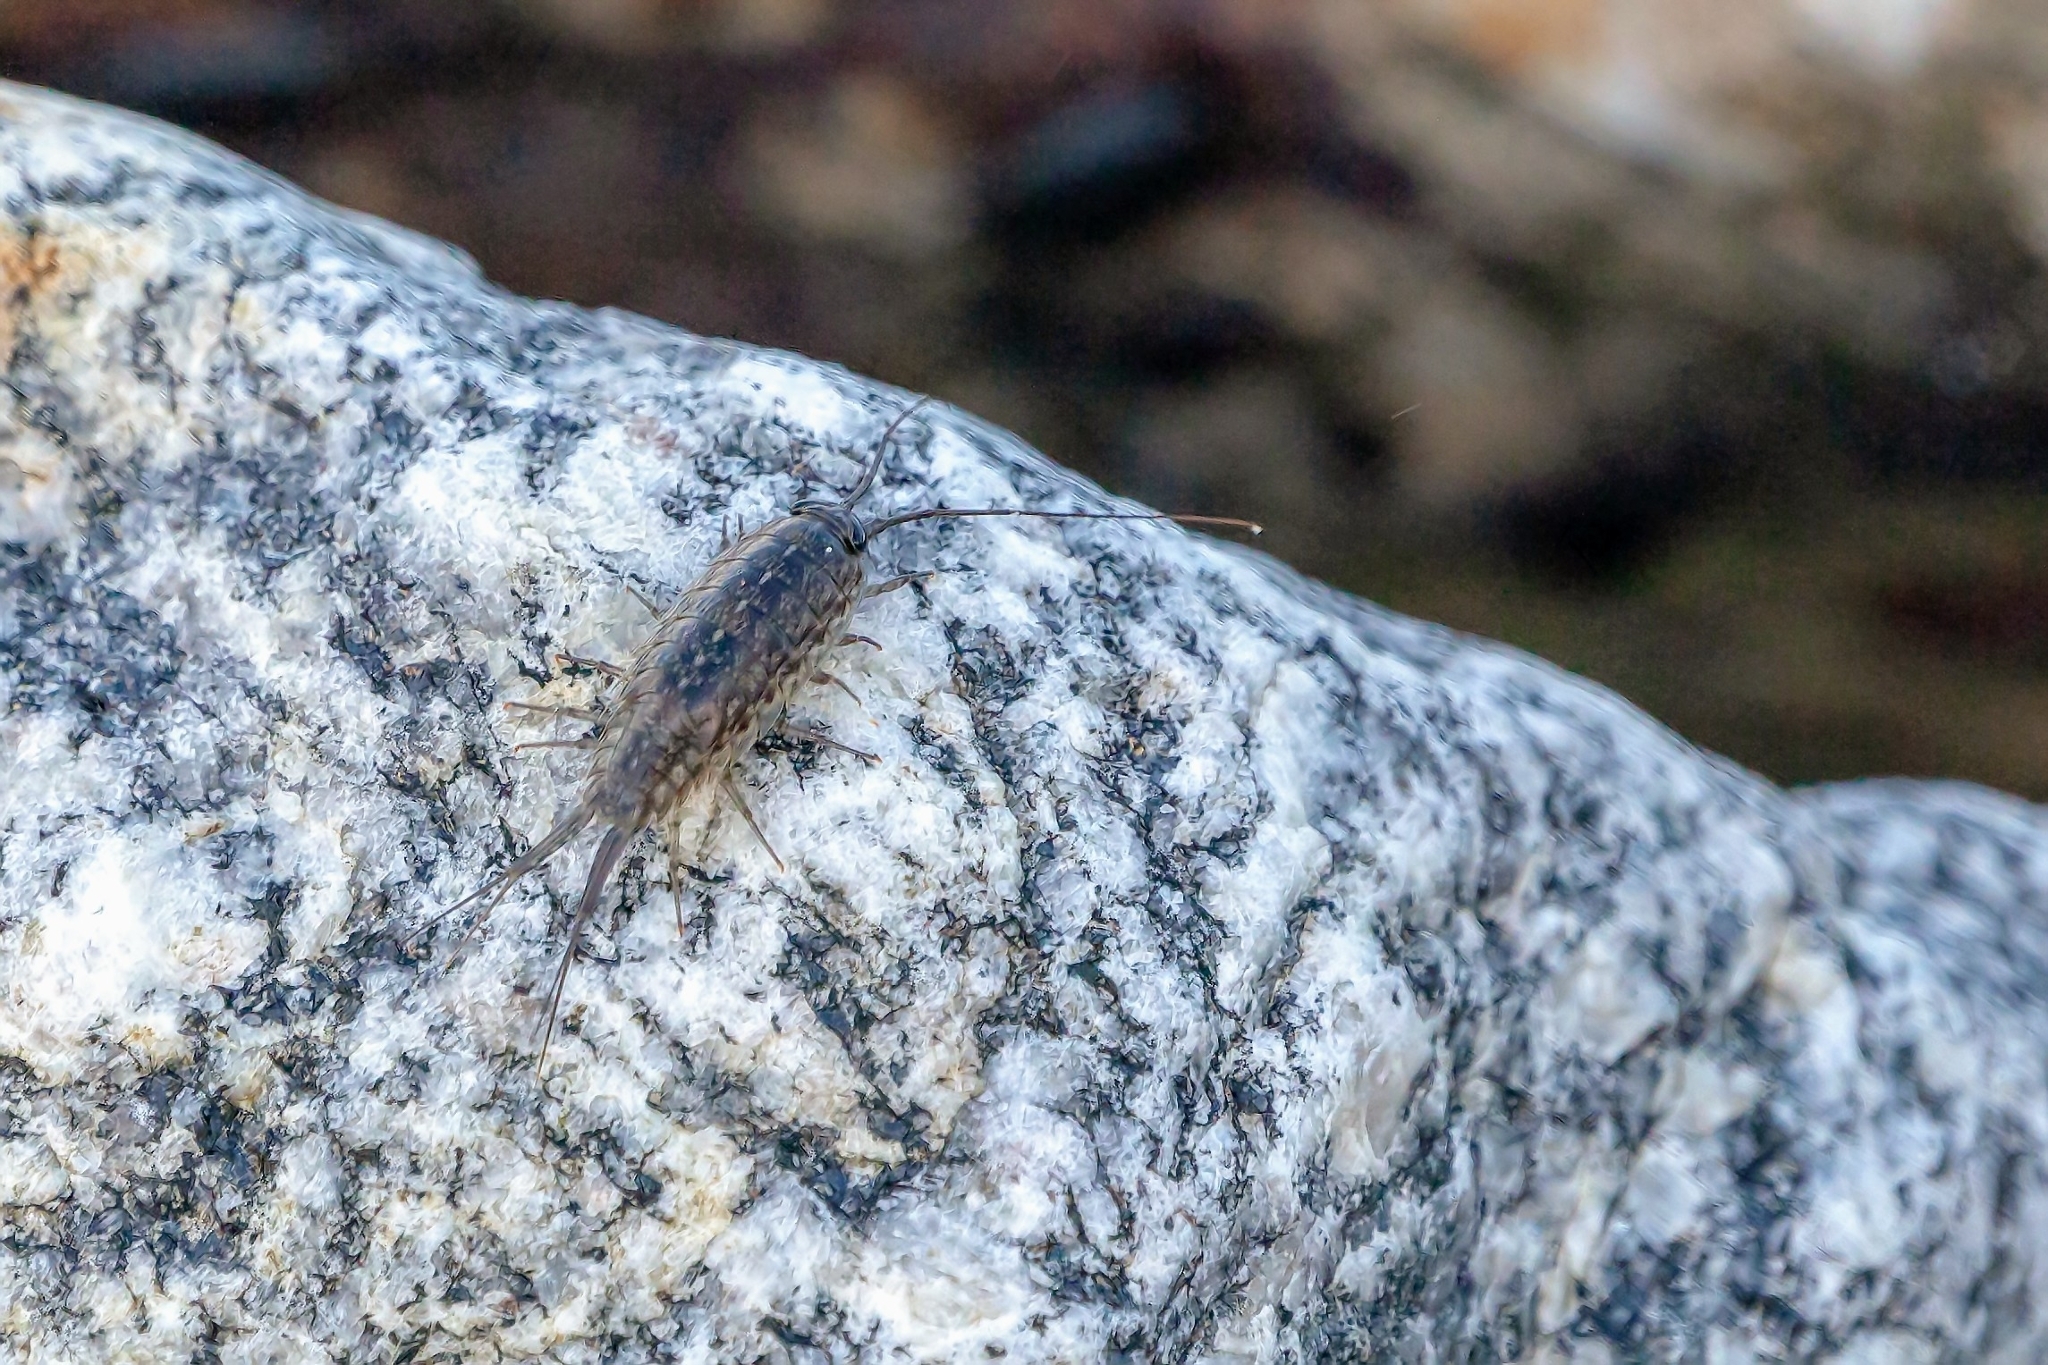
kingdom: Animalia
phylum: Arthropoda
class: Malacostraca
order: Isopoda
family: Ligiidae
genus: Ligia
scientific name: Ligia exotica
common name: Wharf roach
